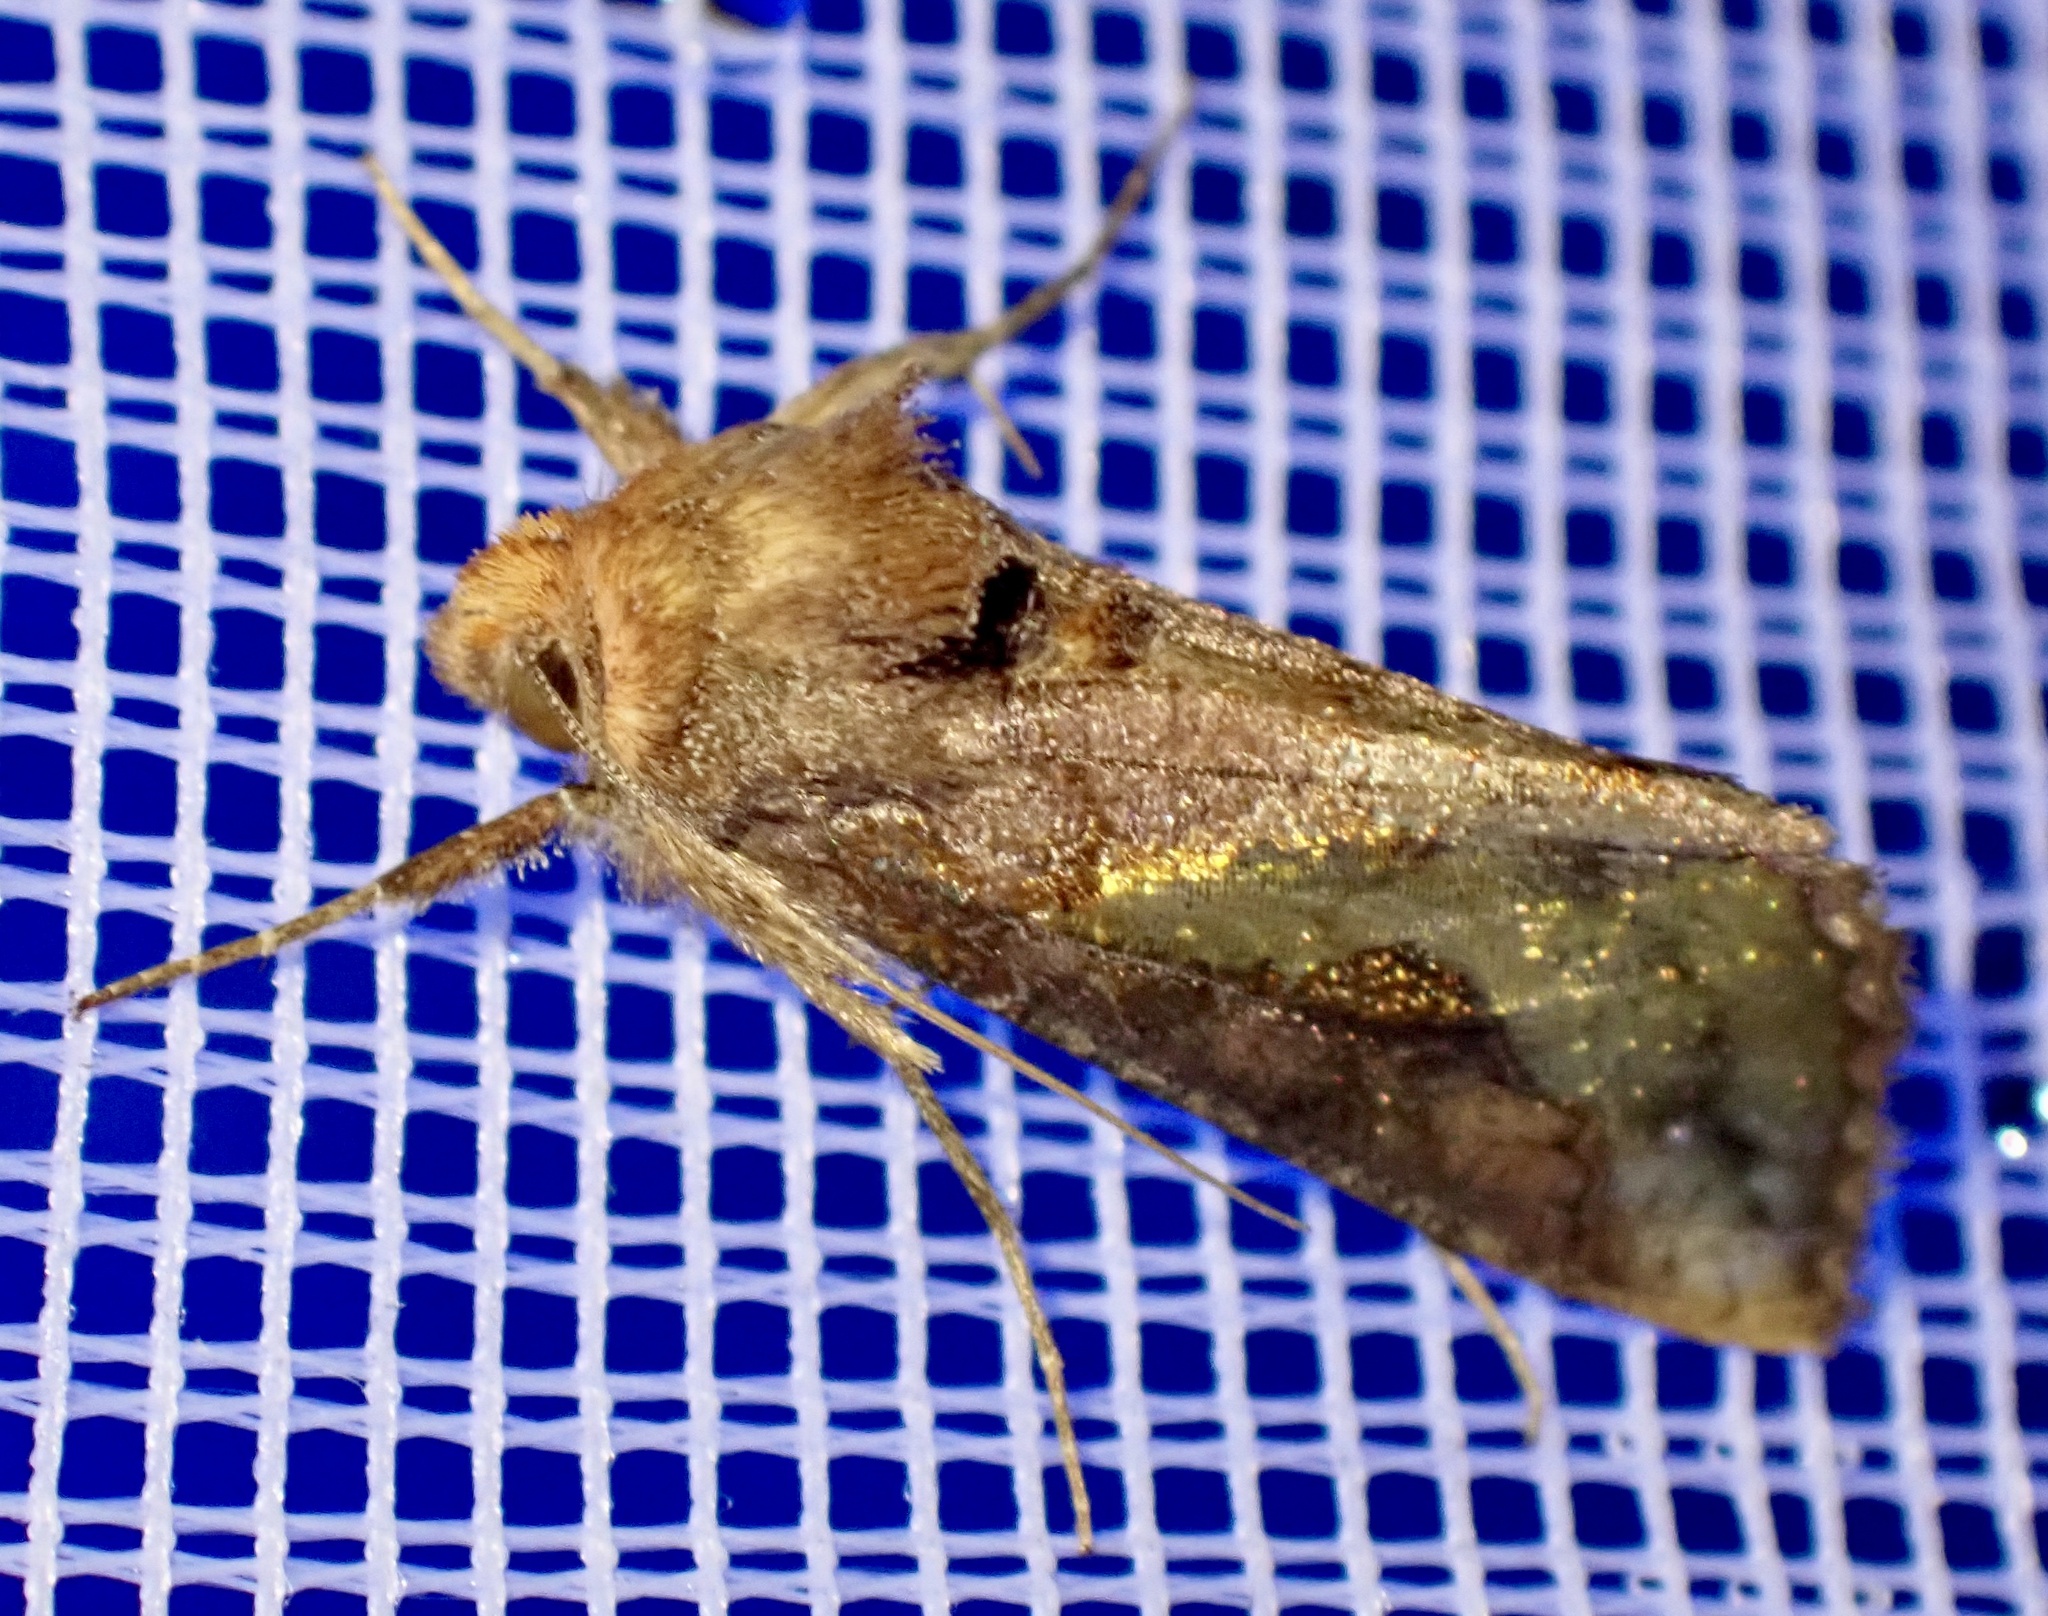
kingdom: Animalia
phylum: Arthropoda
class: Insecta
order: Lepidoptera
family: Noctuidae
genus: Thysanoplusia
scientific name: Thysanoplusia orichalcea
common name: Slender burnished brass, golden plusia
